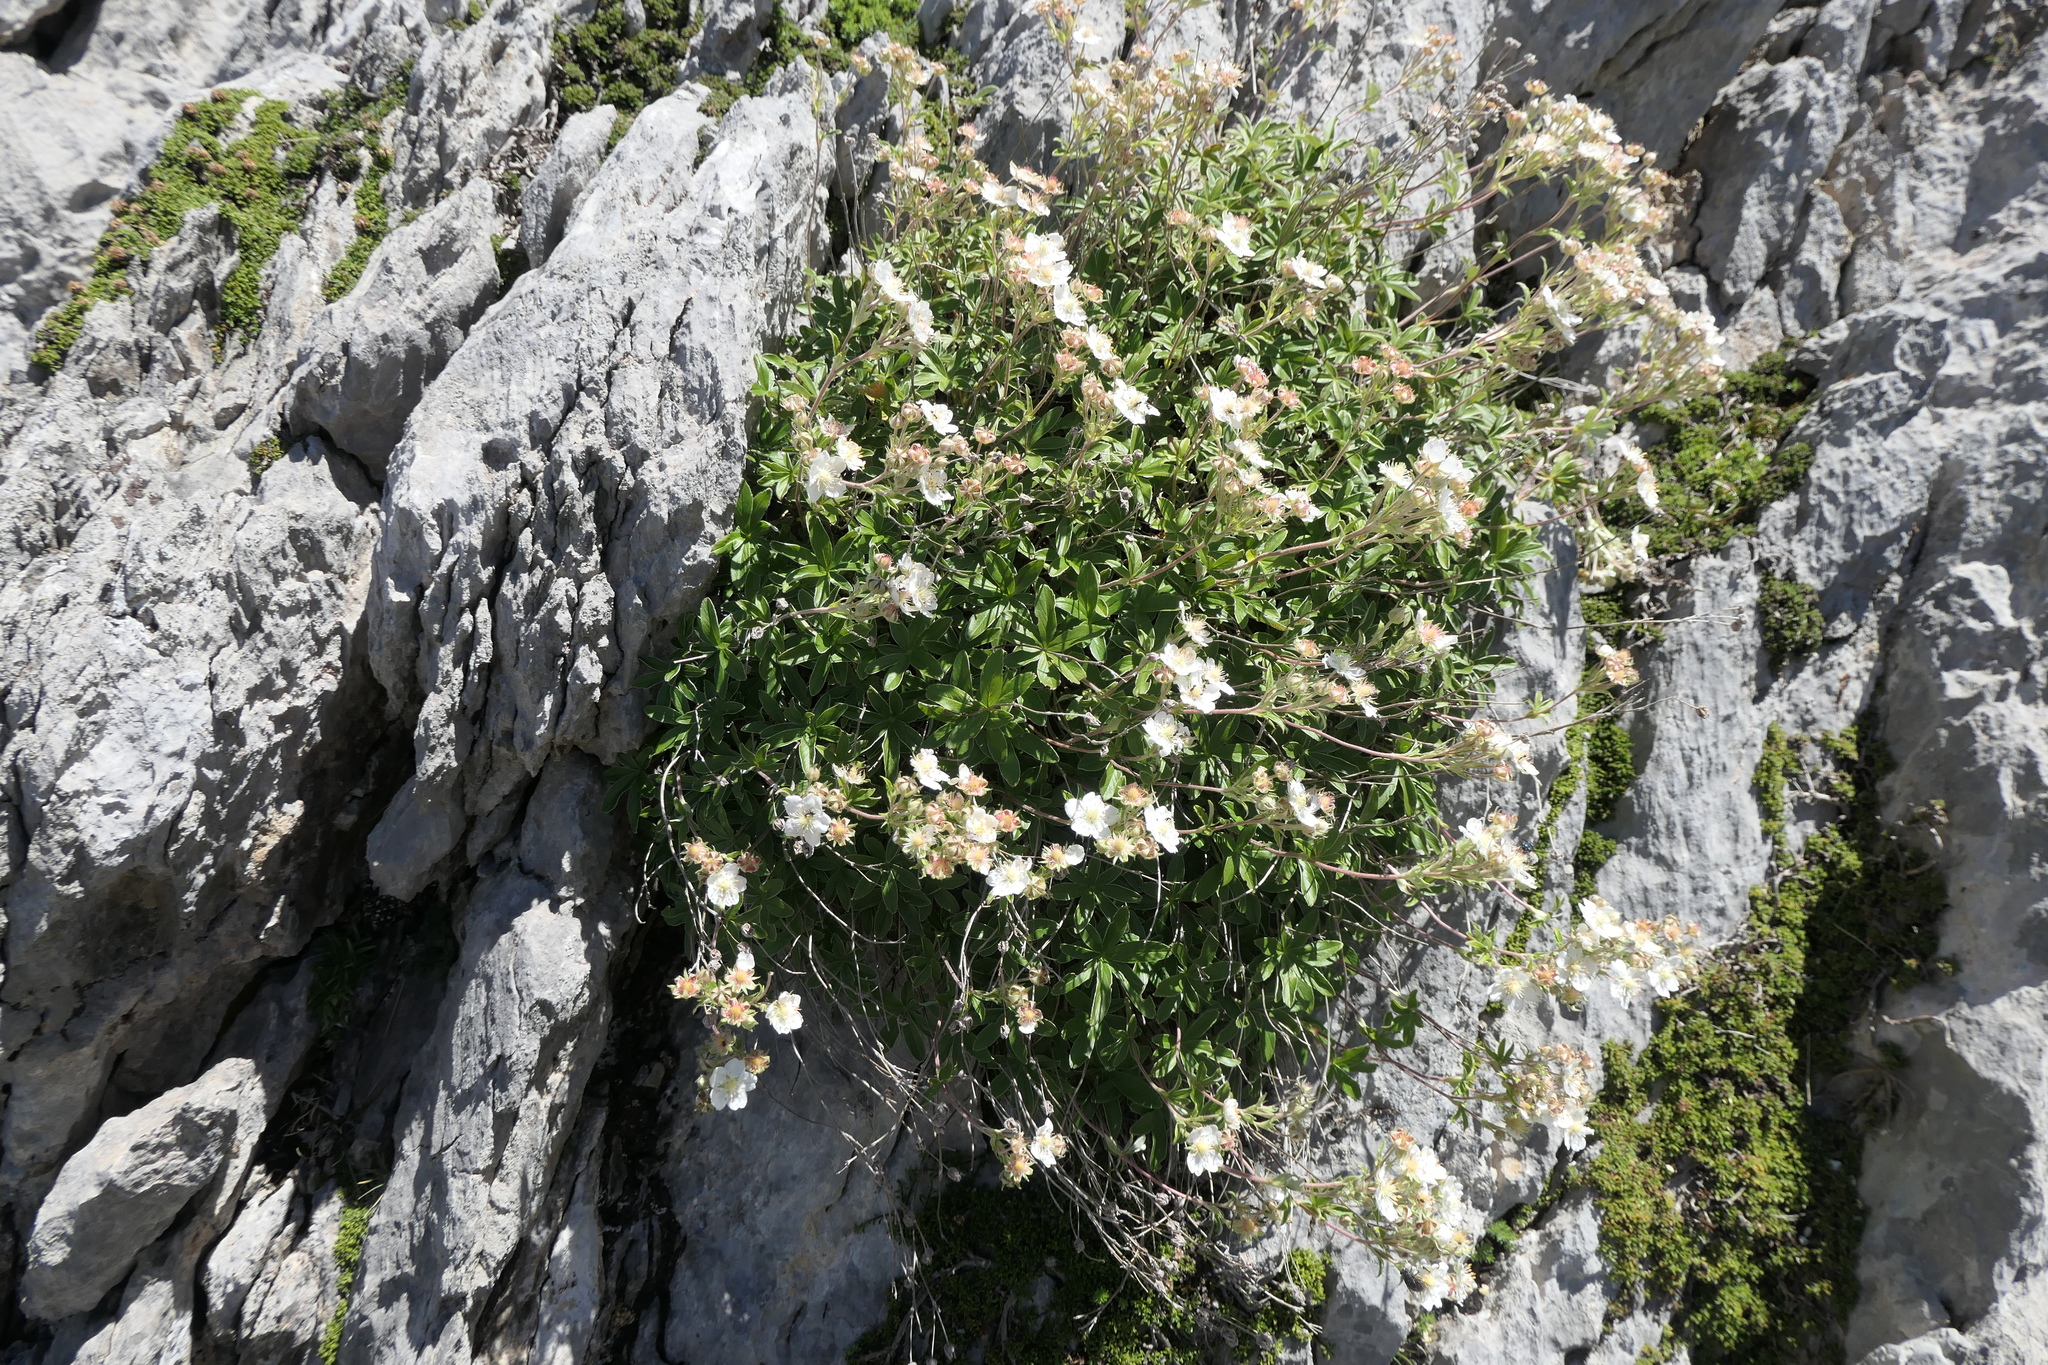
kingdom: Plantae
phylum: Tracheophyta
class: Magnoliopsida
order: Rosales
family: Rosaceae
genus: Potentilla
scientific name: Potentilla alchimilloides
